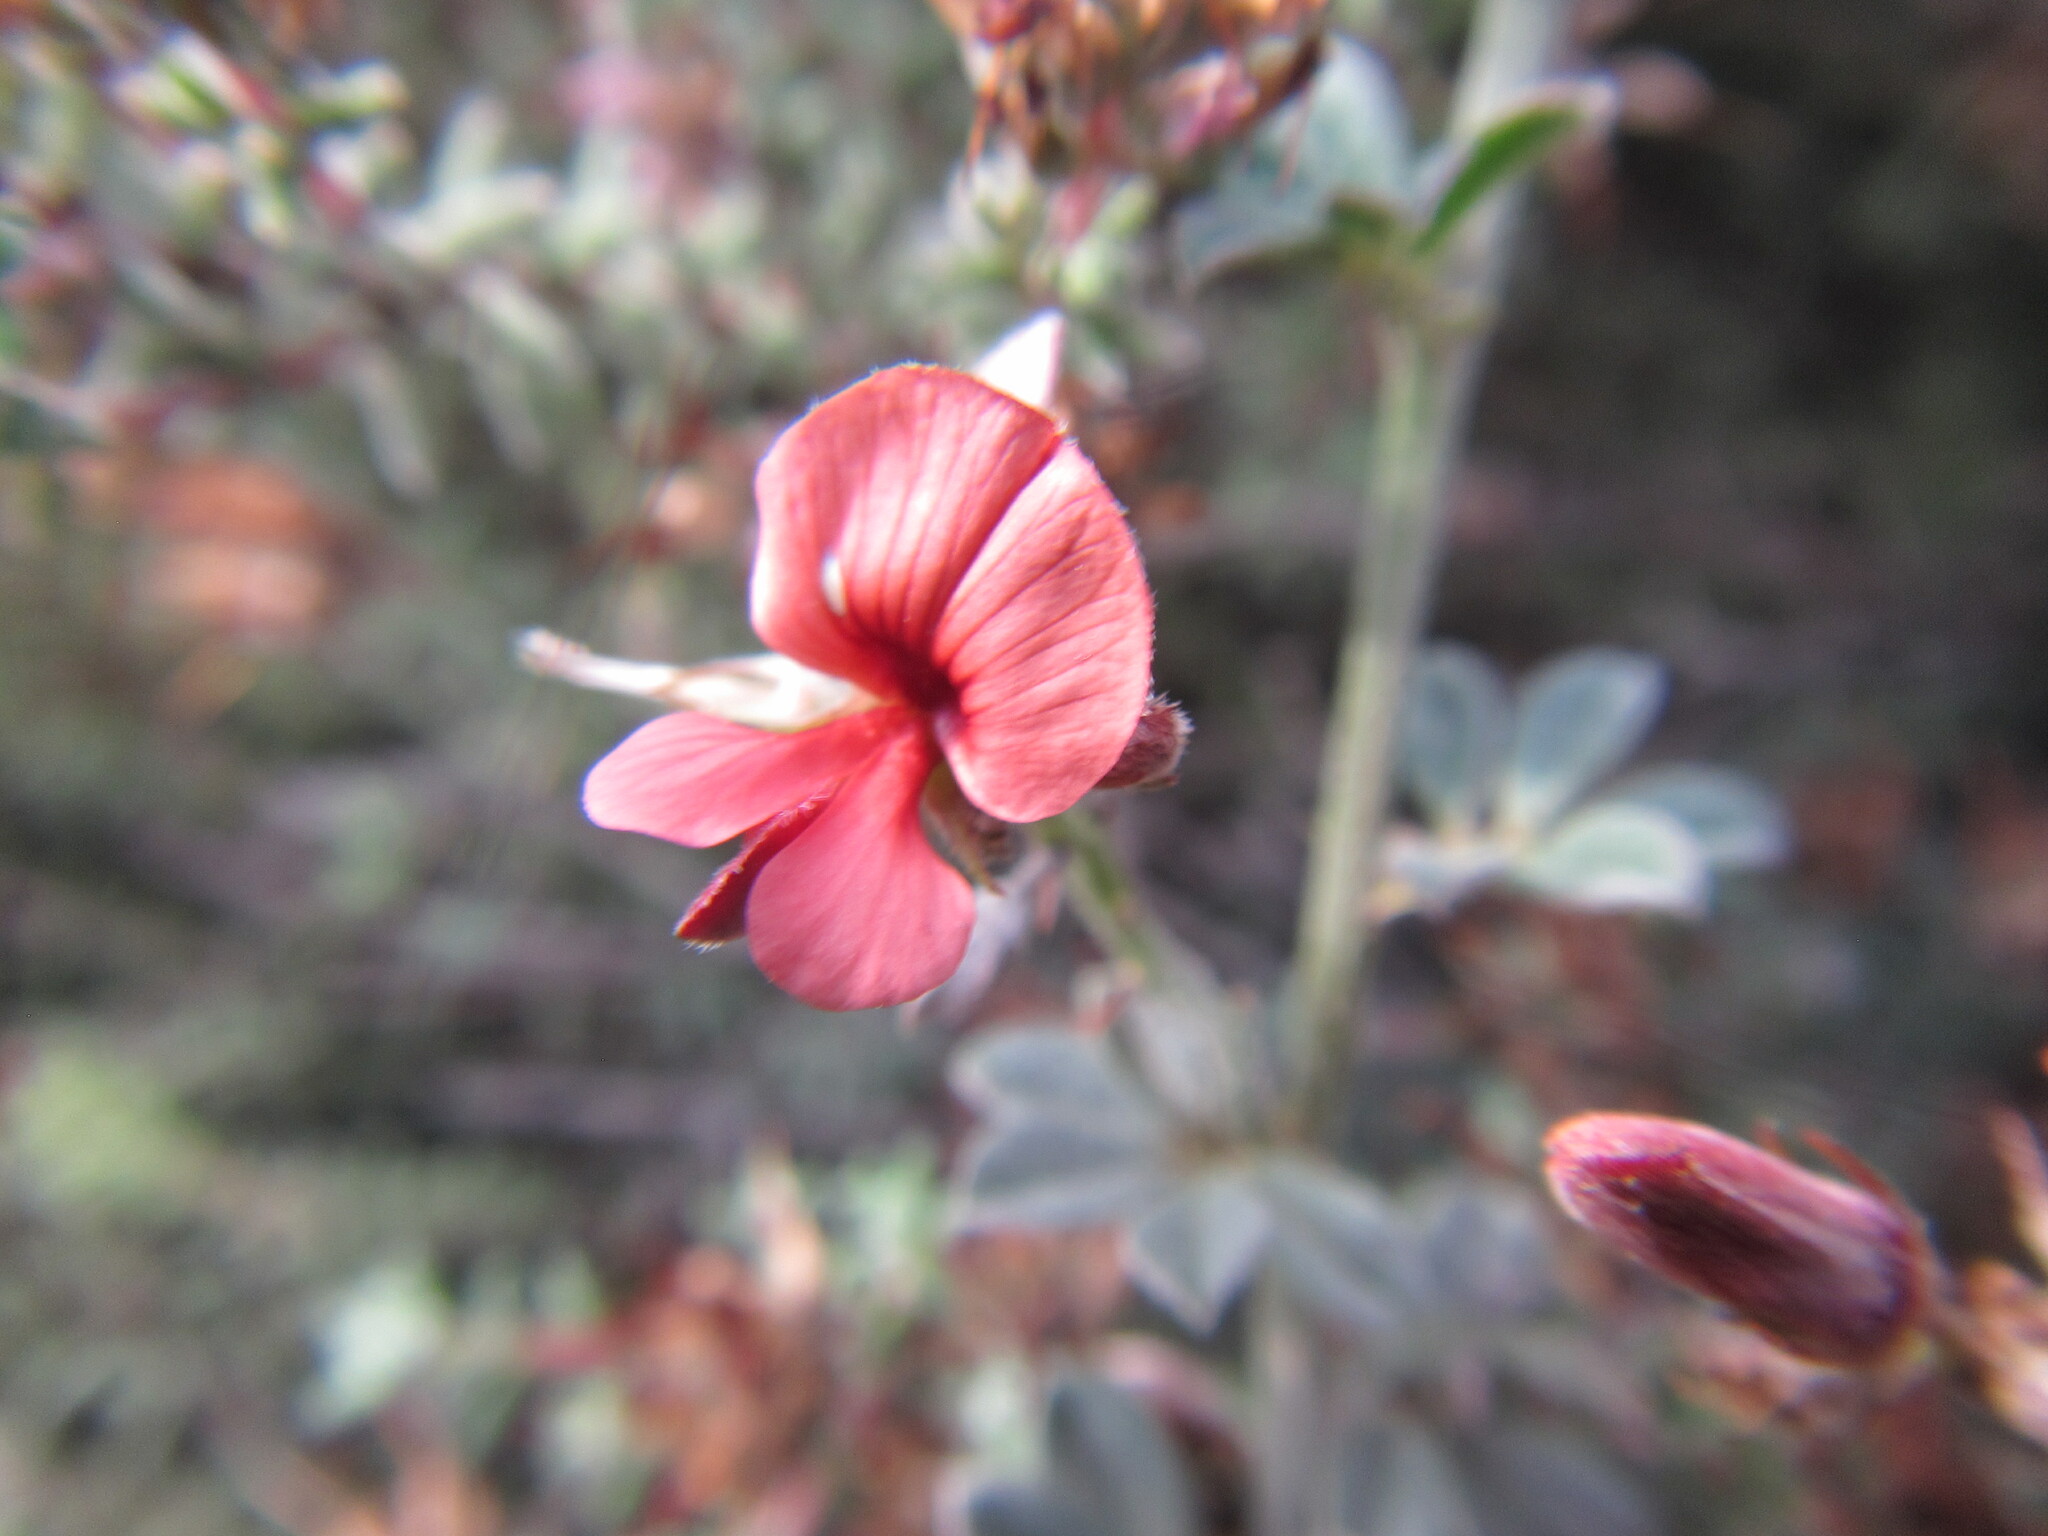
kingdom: Plantae
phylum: Tracheophyta
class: Magnoliopsida
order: Fabales
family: Fabaceae
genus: Indigofera
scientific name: Indigofera priorii
